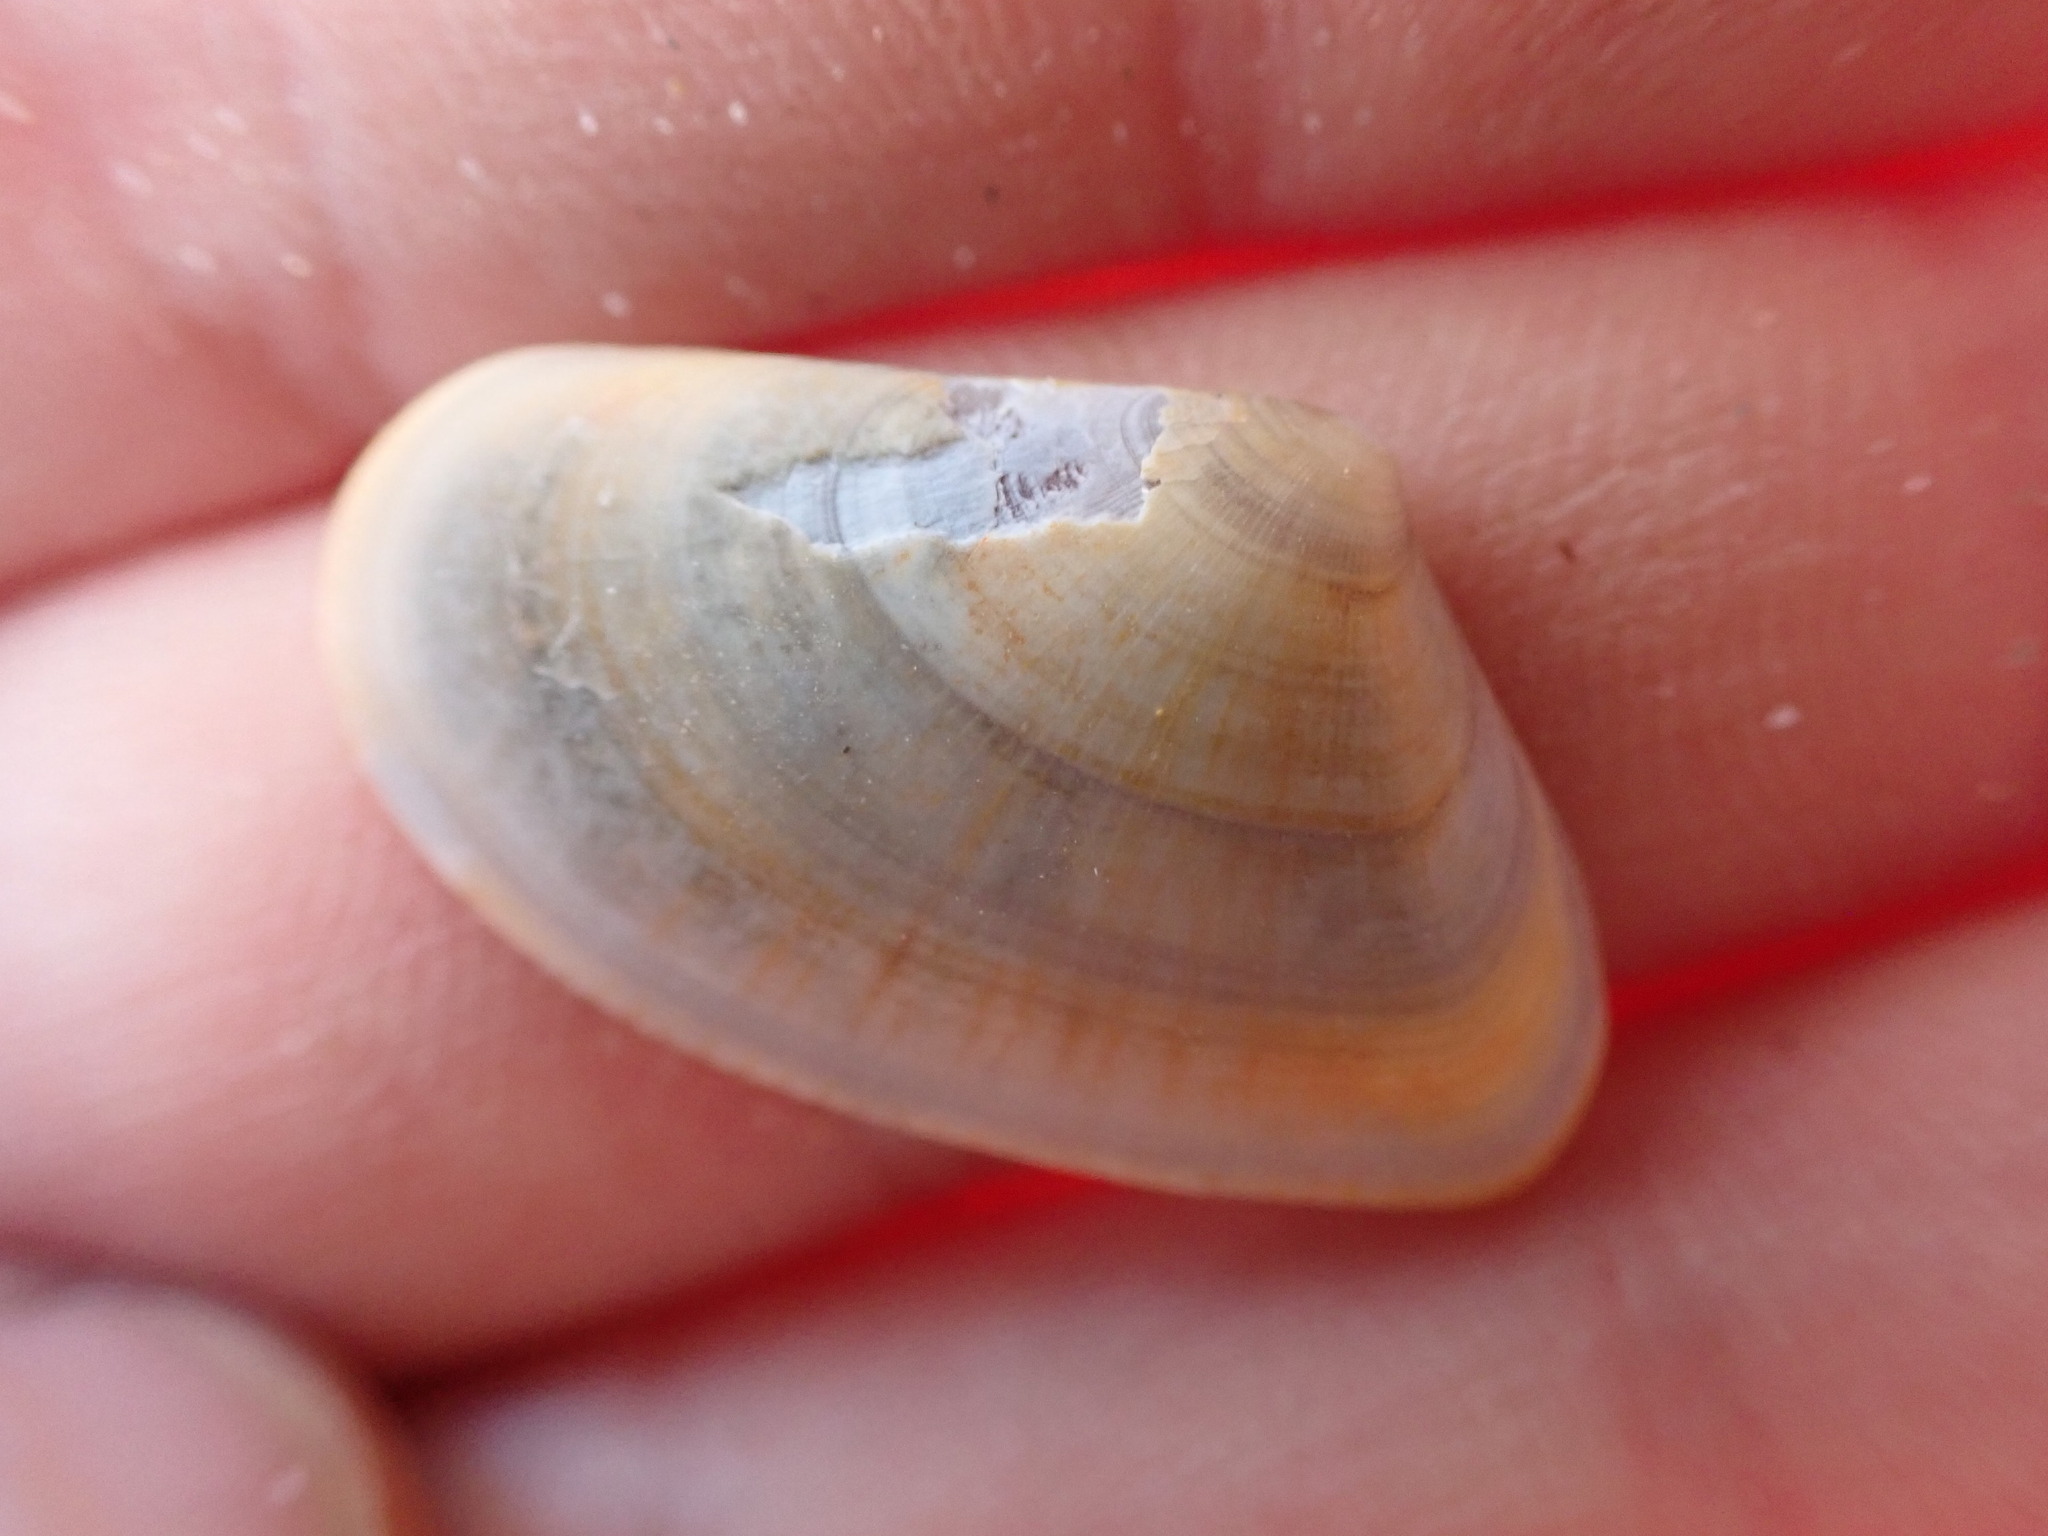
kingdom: Animalia
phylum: Mollusca
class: Bivalvia
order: Cardiida
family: Donacidae
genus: Donax
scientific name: Donax trunculus
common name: Truncate donax
